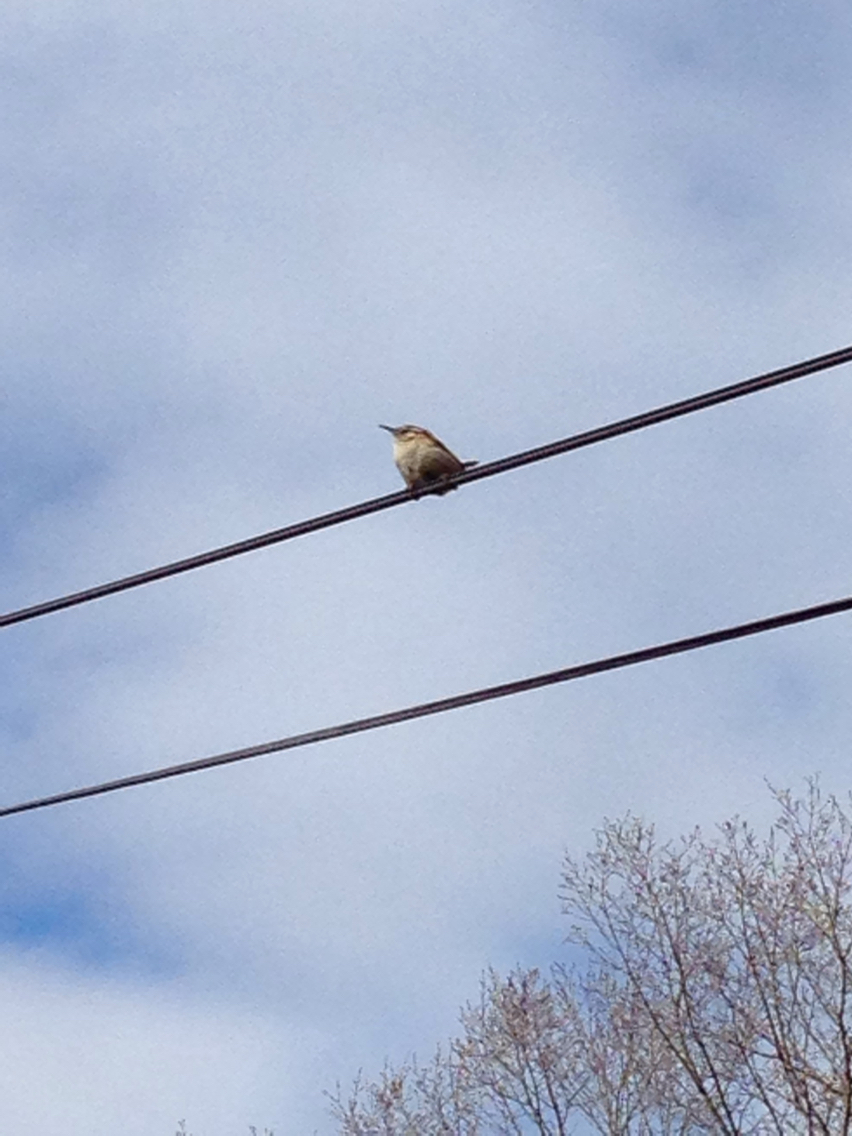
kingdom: Animalia
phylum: Chordata
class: Aves
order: Passeriformes
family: Troglodytidae
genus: Thryothorus
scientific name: Thryothorus ludovicianus
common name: Carolina wren
